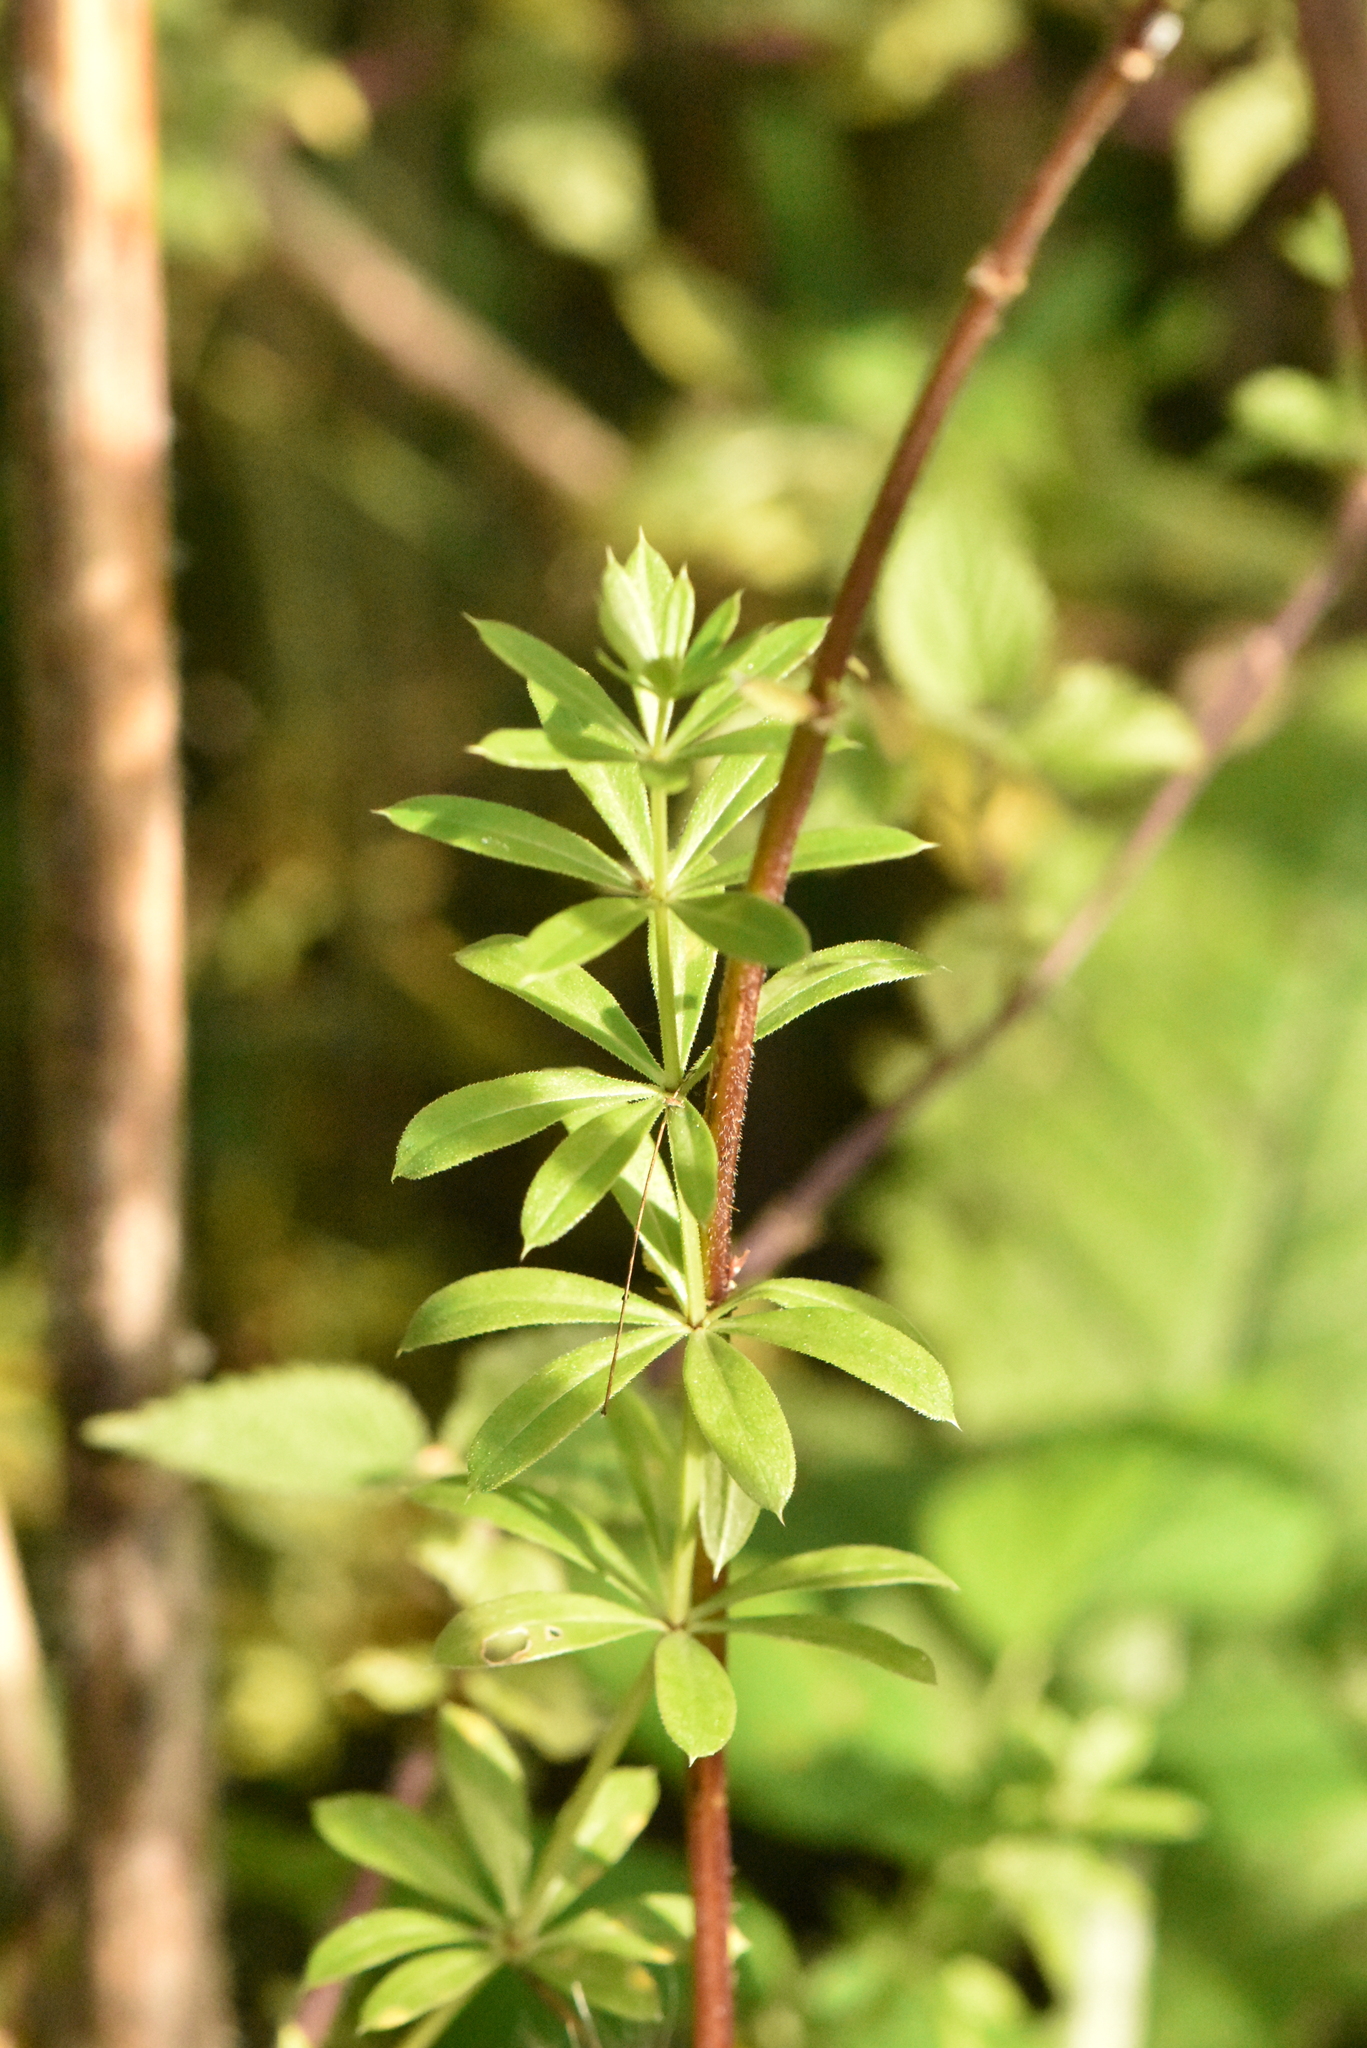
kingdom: Plantae
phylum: Tracheophyta
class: Magnoliopsida
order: Gentianales
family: Rubiaceae
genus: Galium
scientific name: Galium rivale
